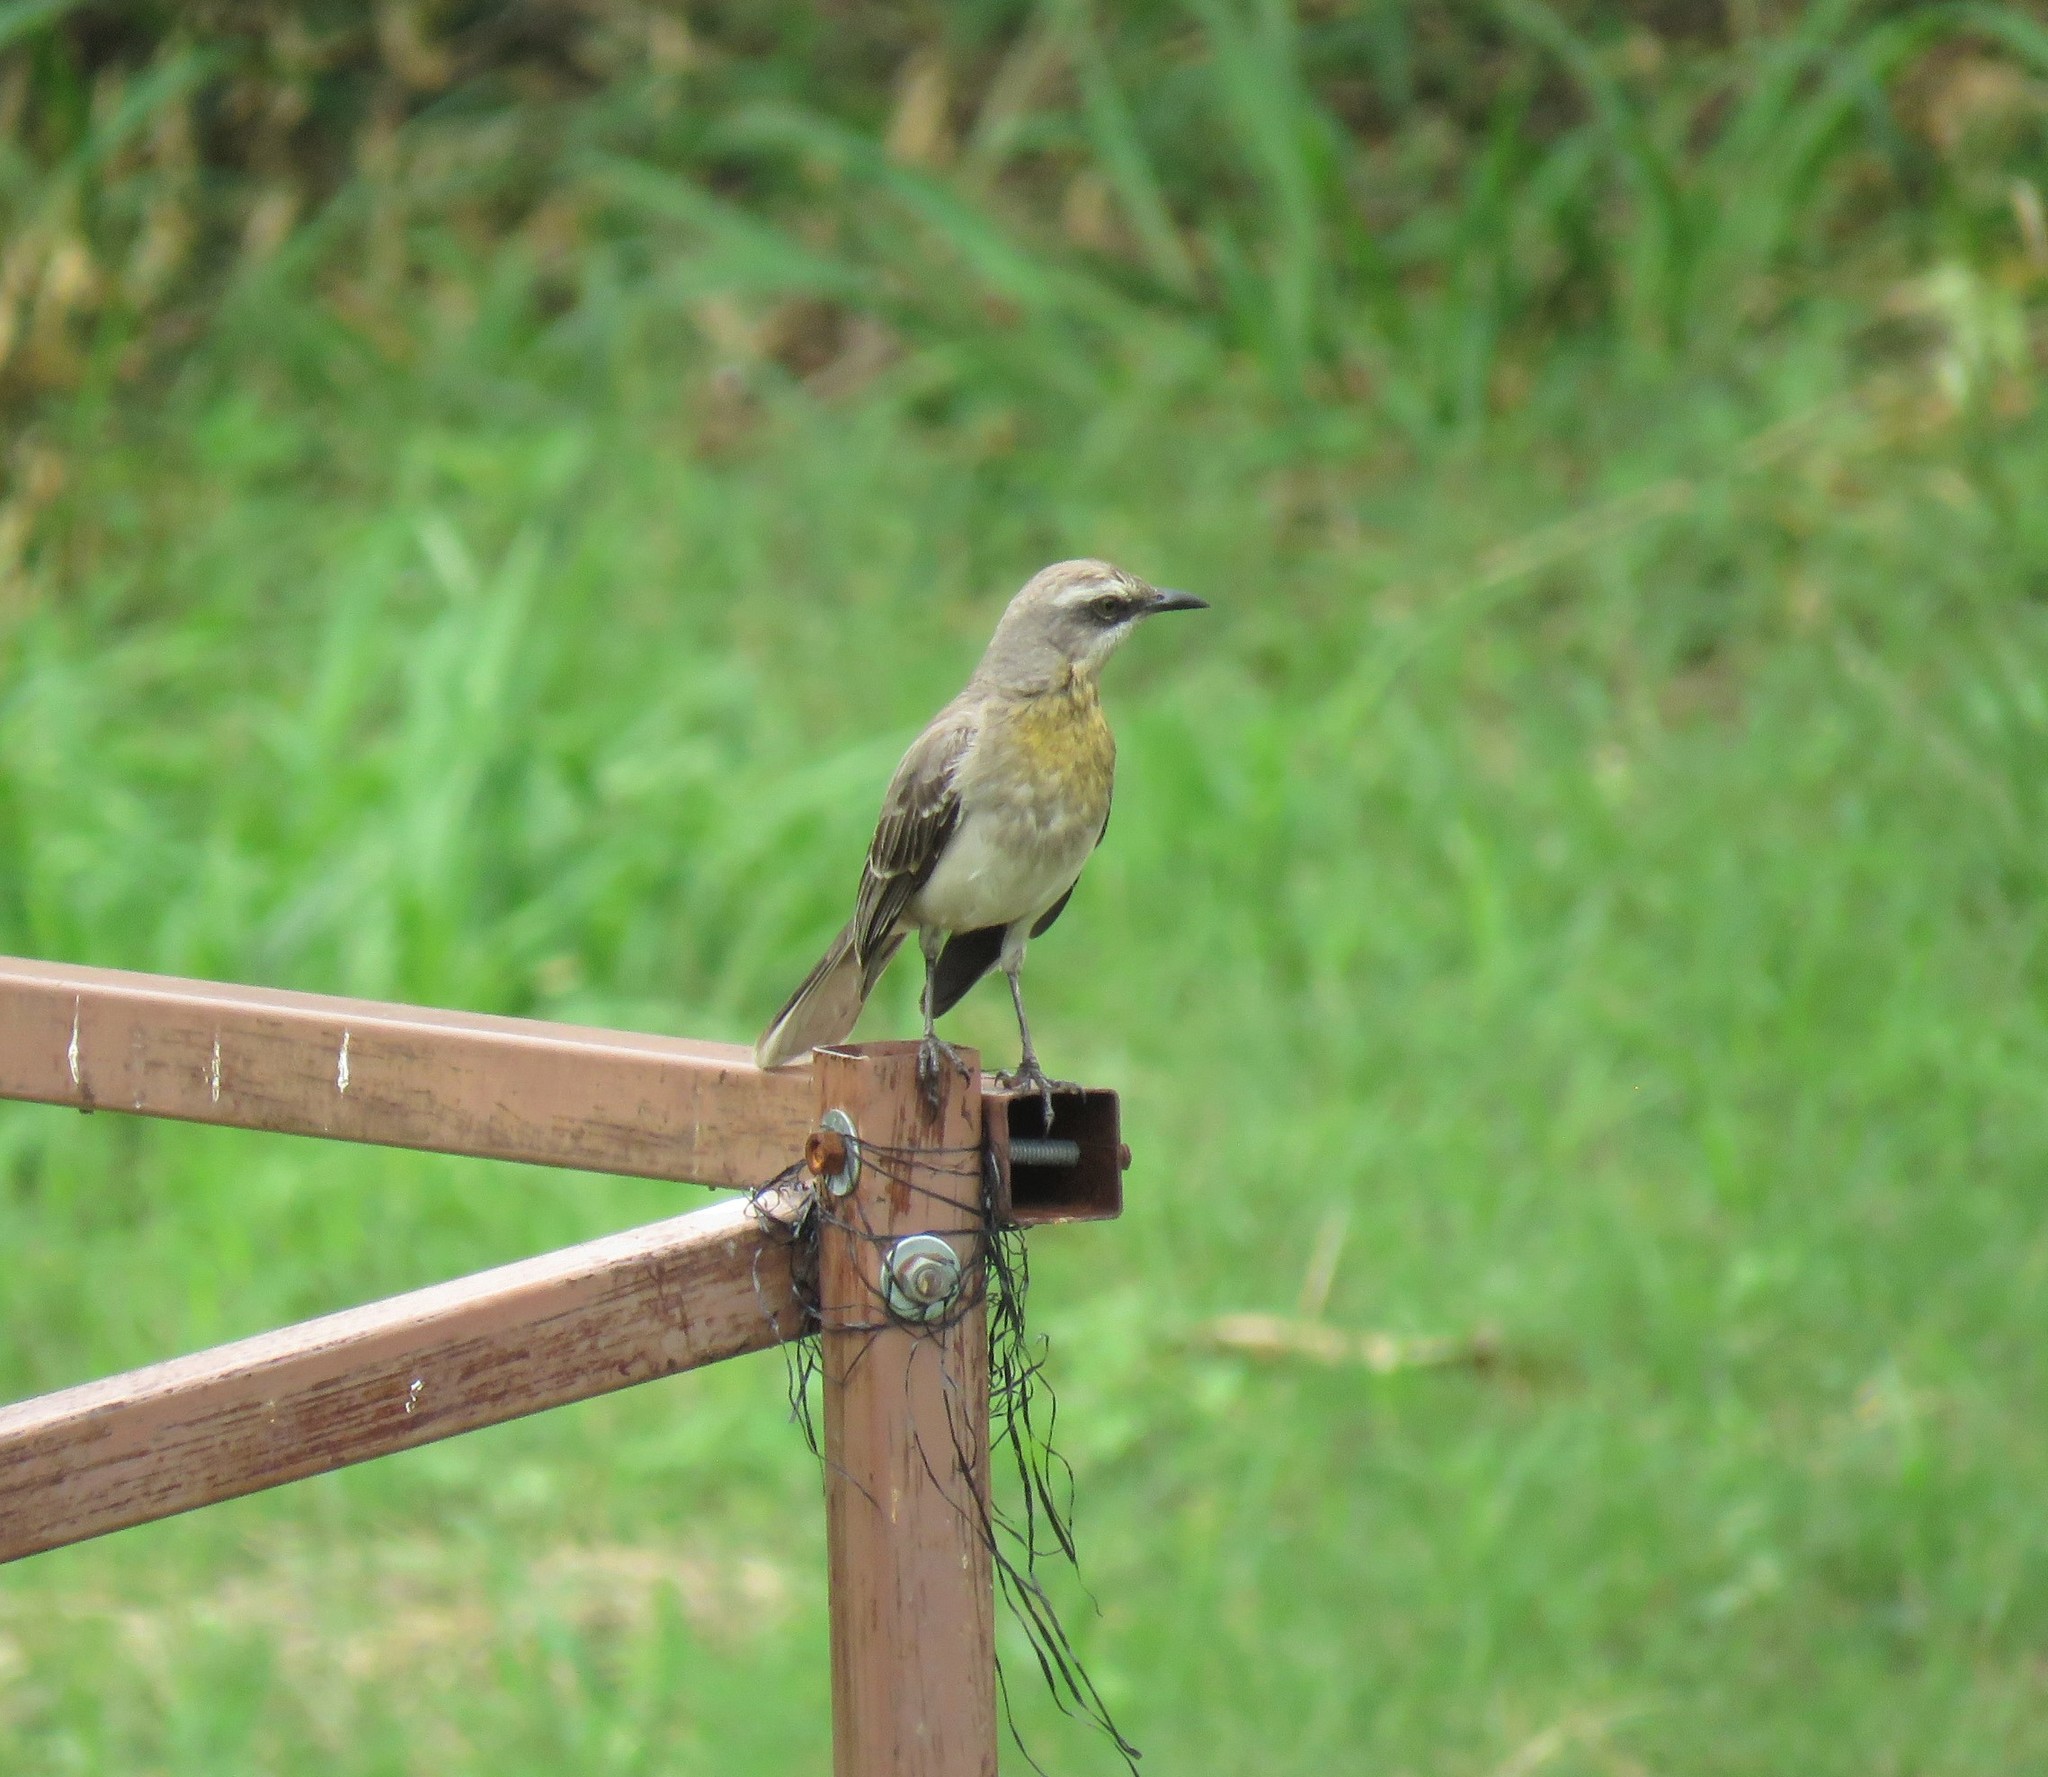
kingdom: Animalia
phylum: Chordata
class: Aves
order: Passeriformes
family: Mimidae
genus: Mimus
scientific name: Mimus gilvus
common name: Tropical mockingbird
